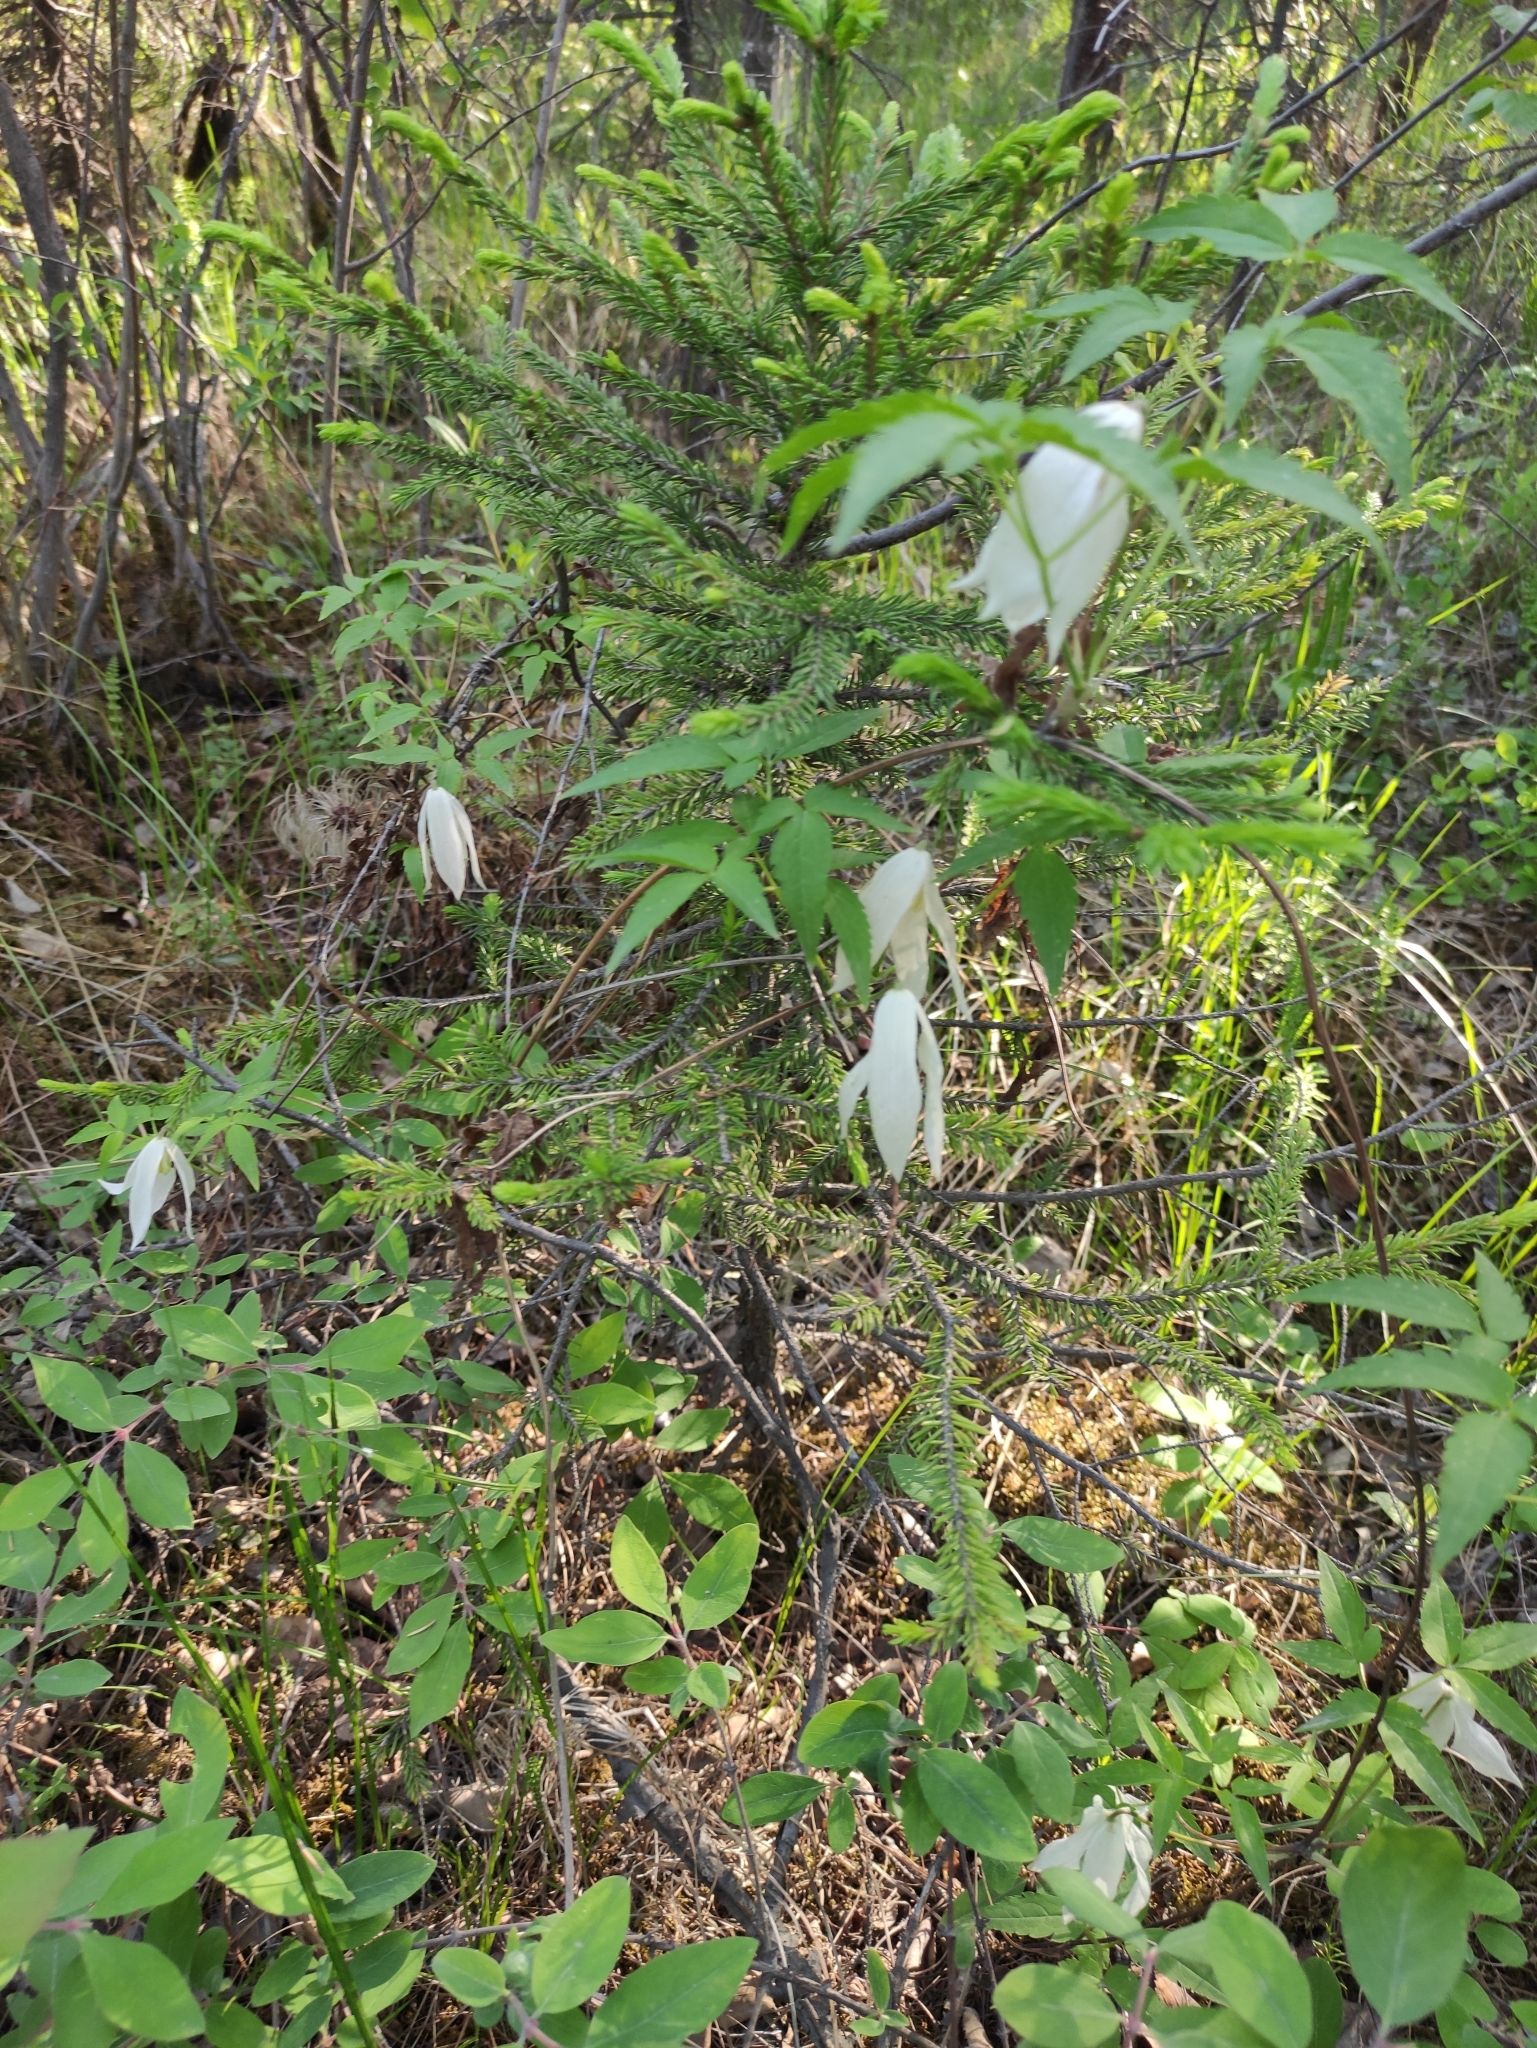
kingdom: Plantae
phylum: Tracheophyta
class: Magnoliopsida
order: Ranunculales
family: Ranunculaceae
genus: Clematis
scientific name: Clematis sibirica
